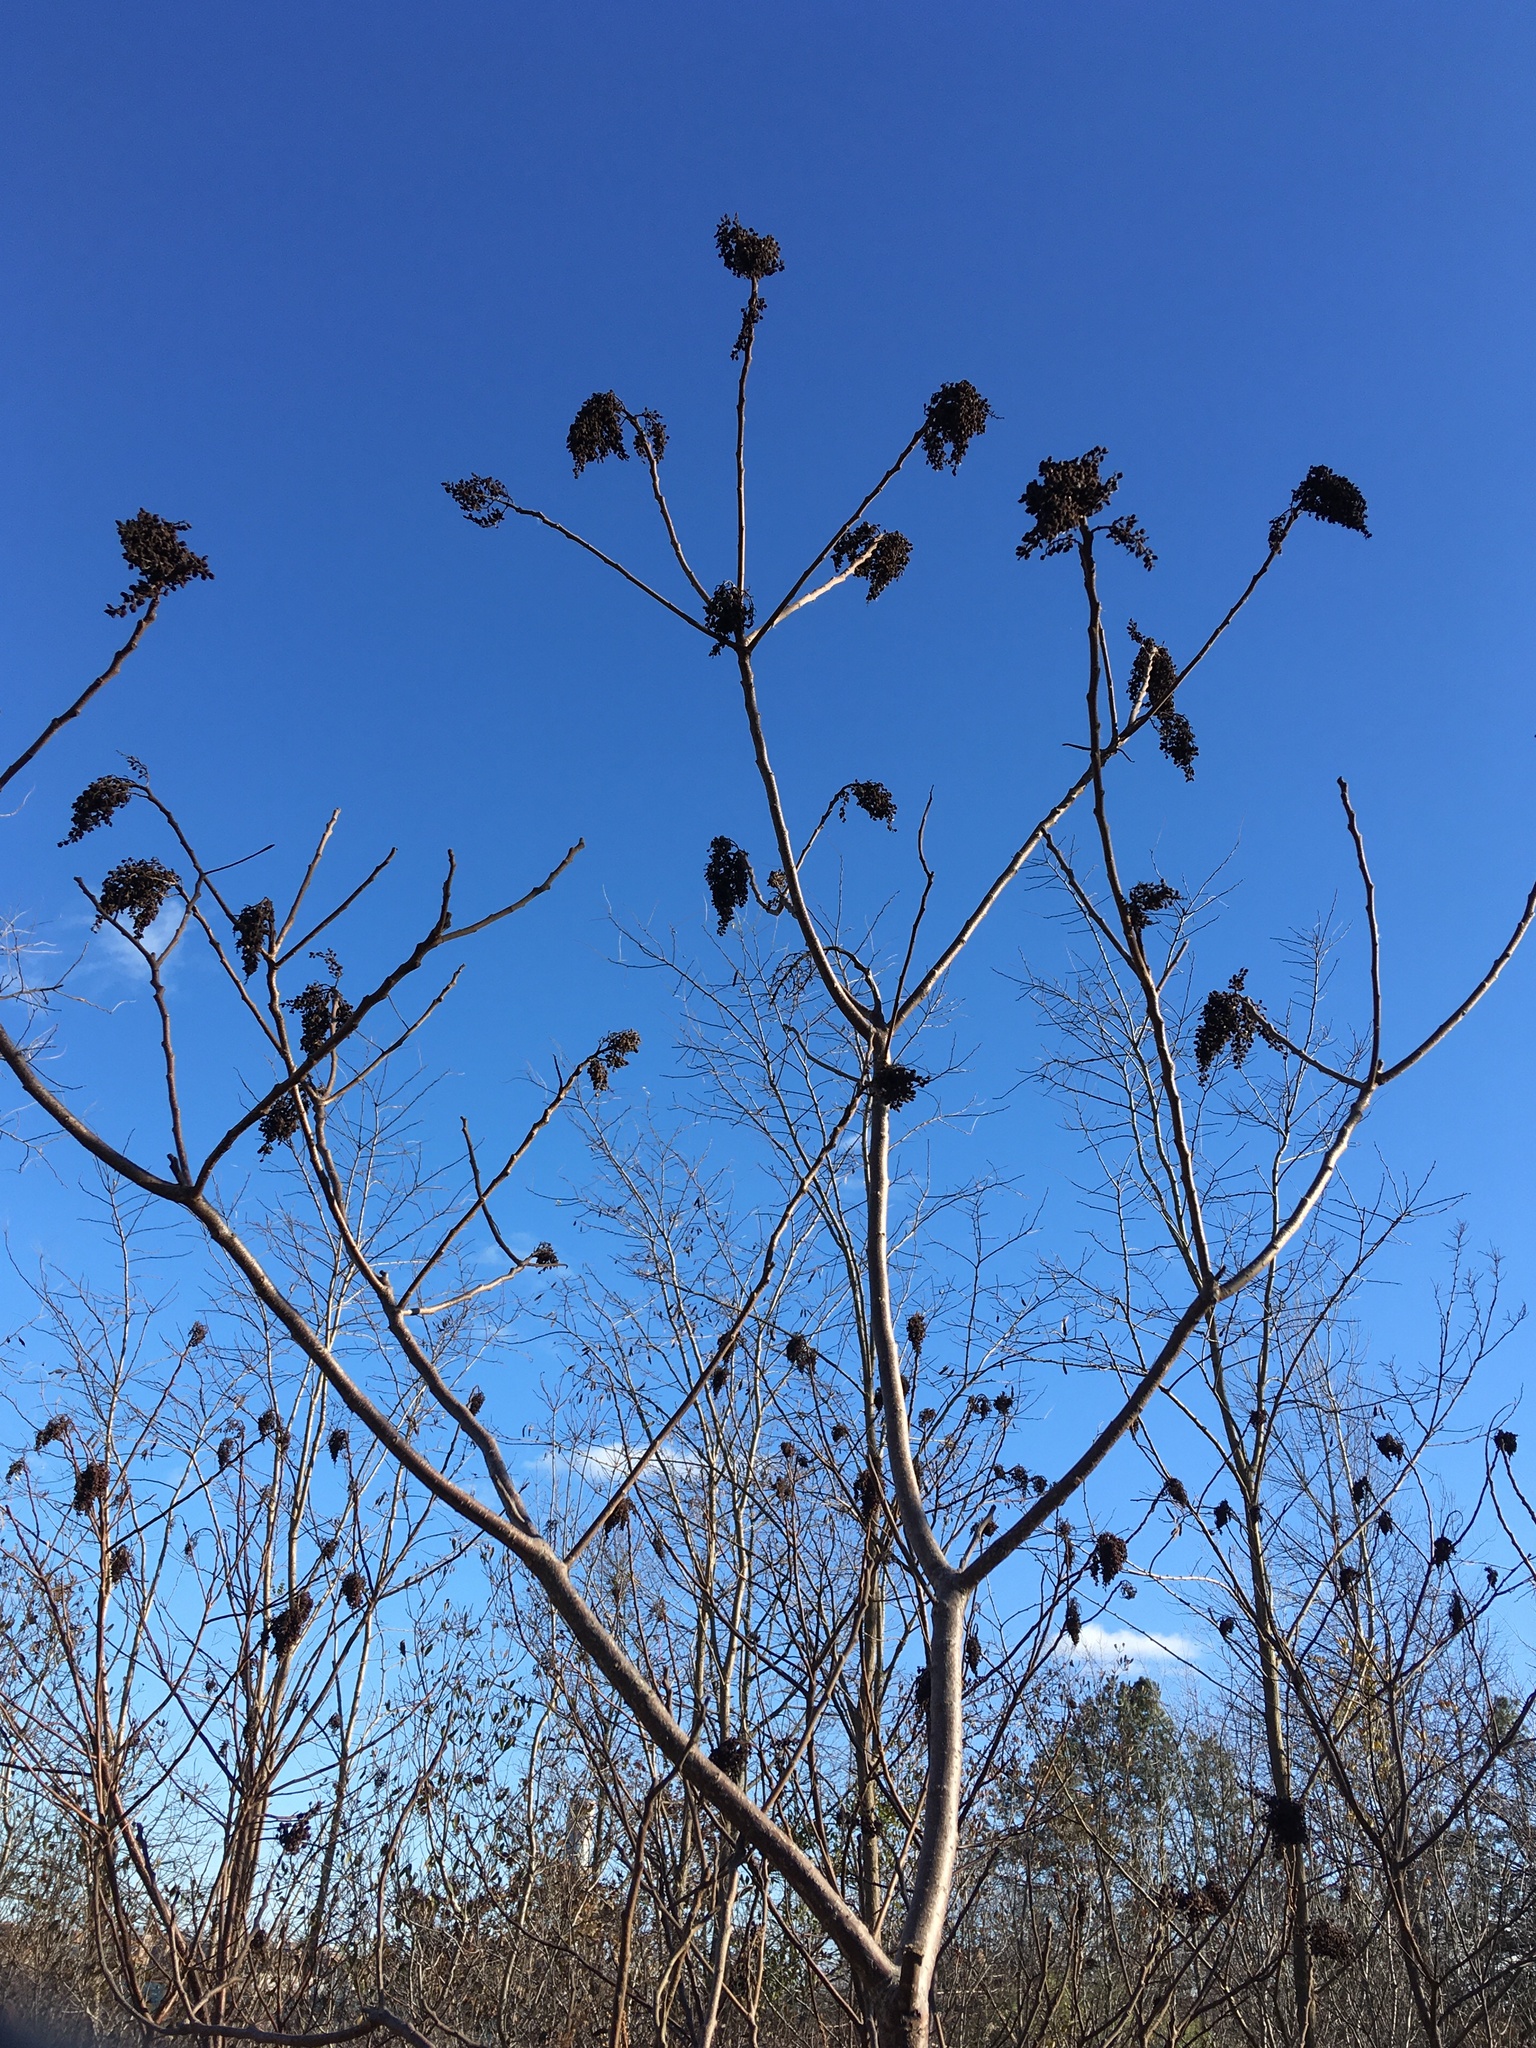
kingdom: Plantae
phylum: Tracheophyta
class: Magnoliopsida
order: Sapindales
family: Anacardiaceae
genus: Rhus
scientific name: Rhus copallina
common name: Shining sumac
